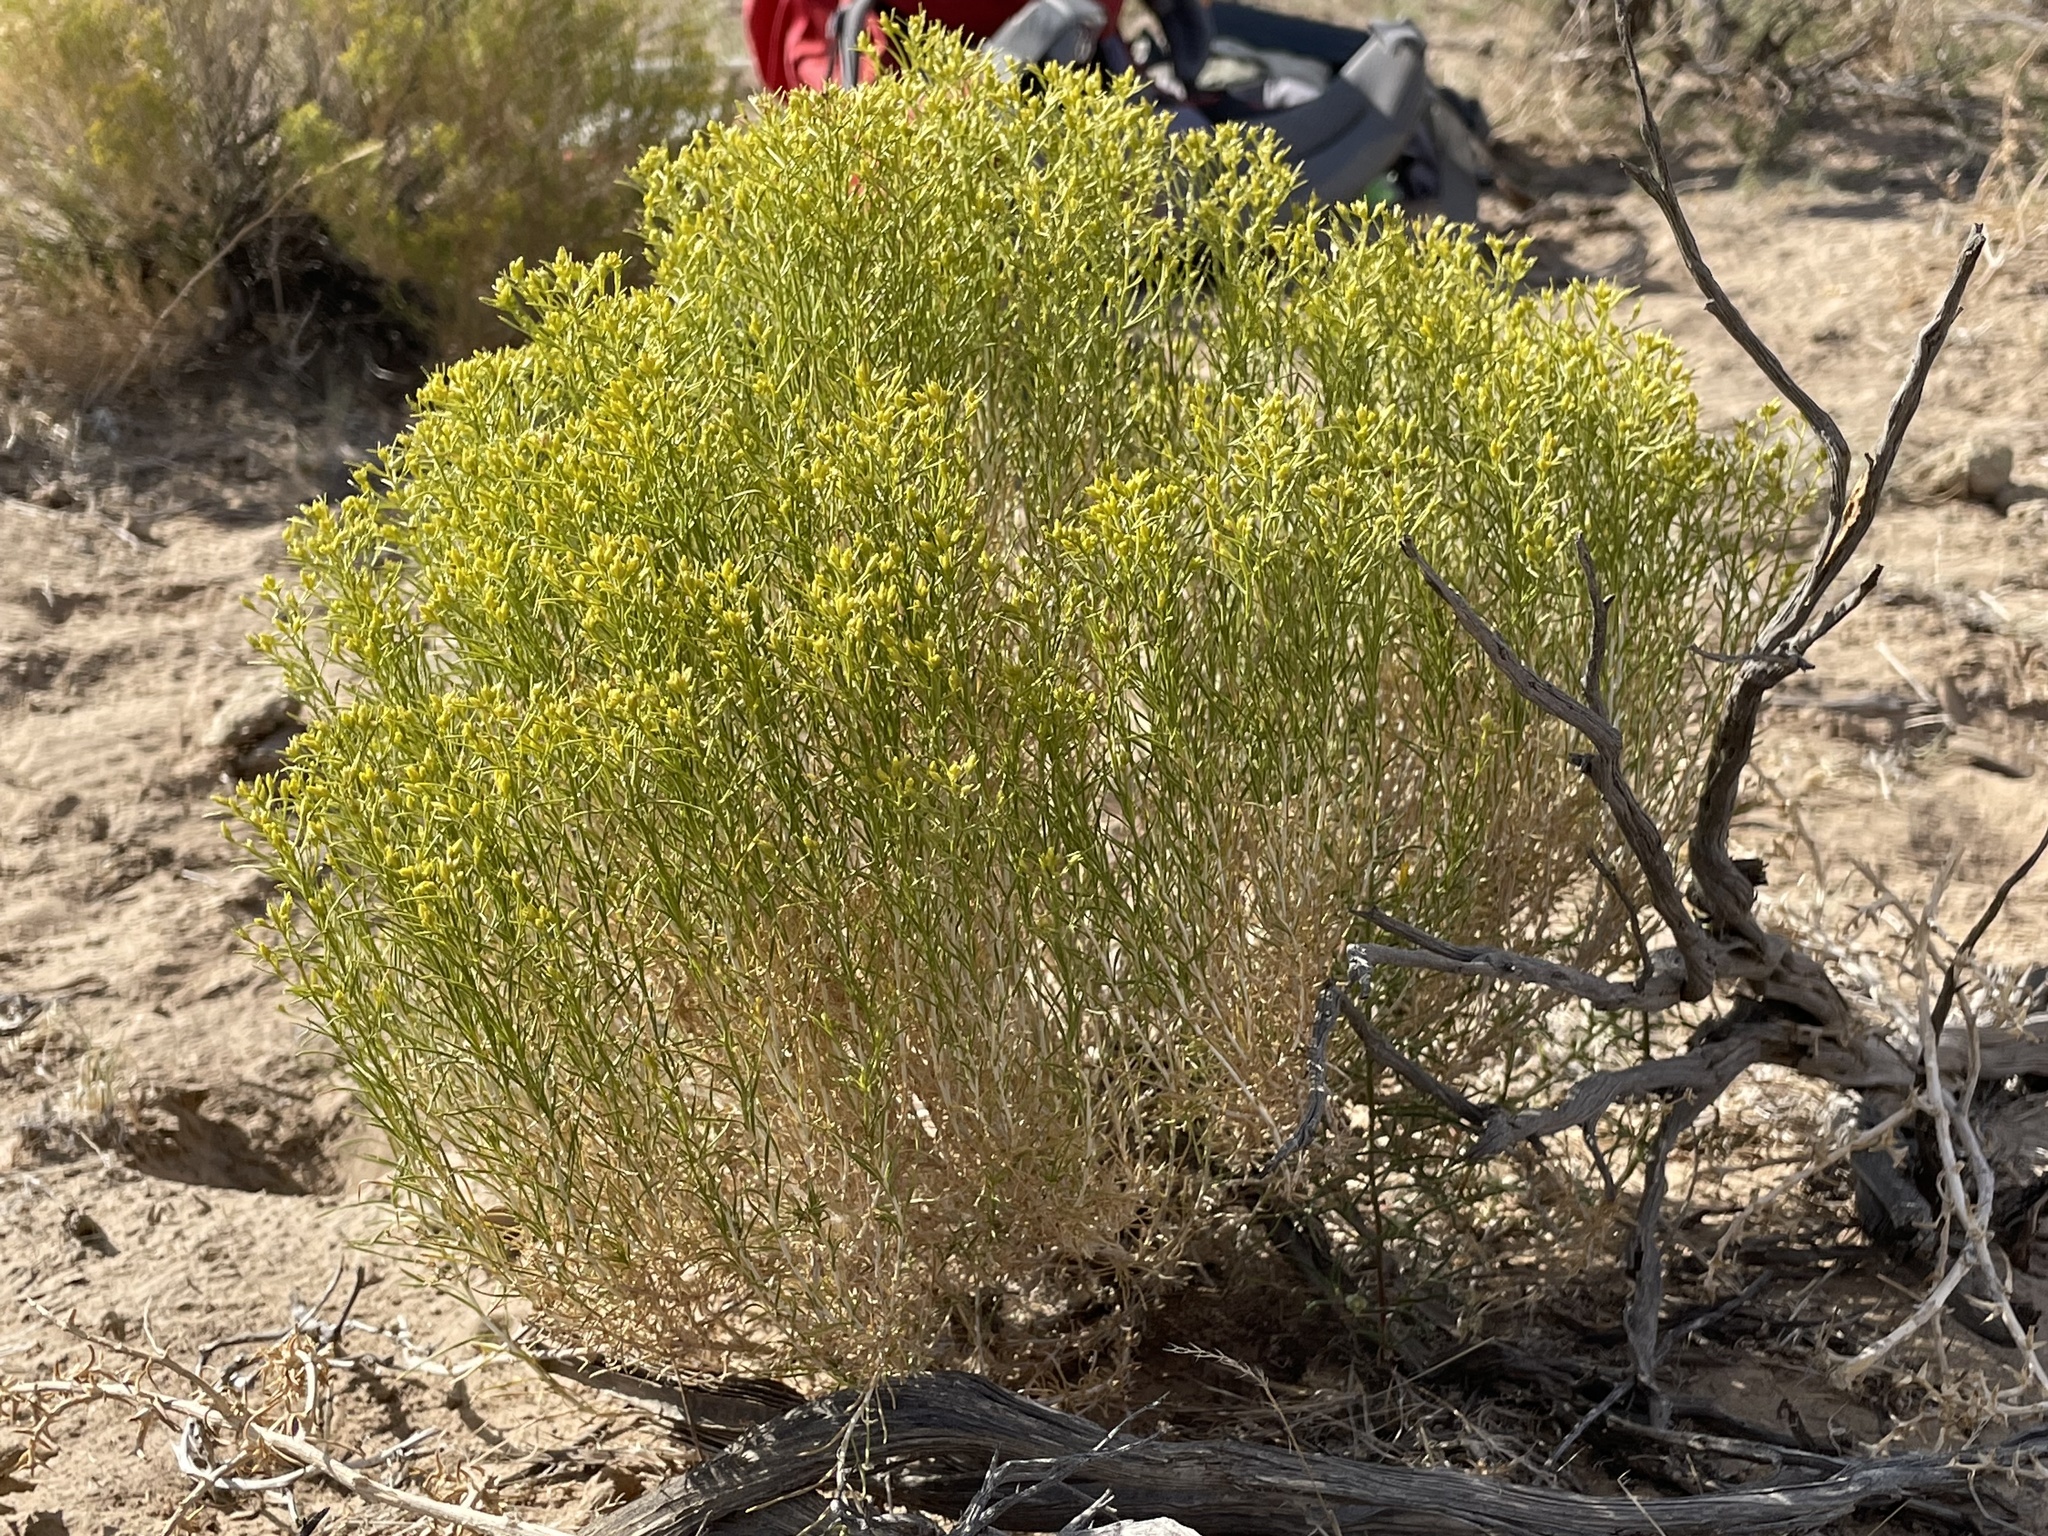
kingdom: Plantae
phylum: Tracheophyta
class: Magnoliopsida
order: Asterales
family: Asteraceae
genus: Gutierrezia
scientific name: Gutierrezia sarothrae
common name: Broom snakeweed
